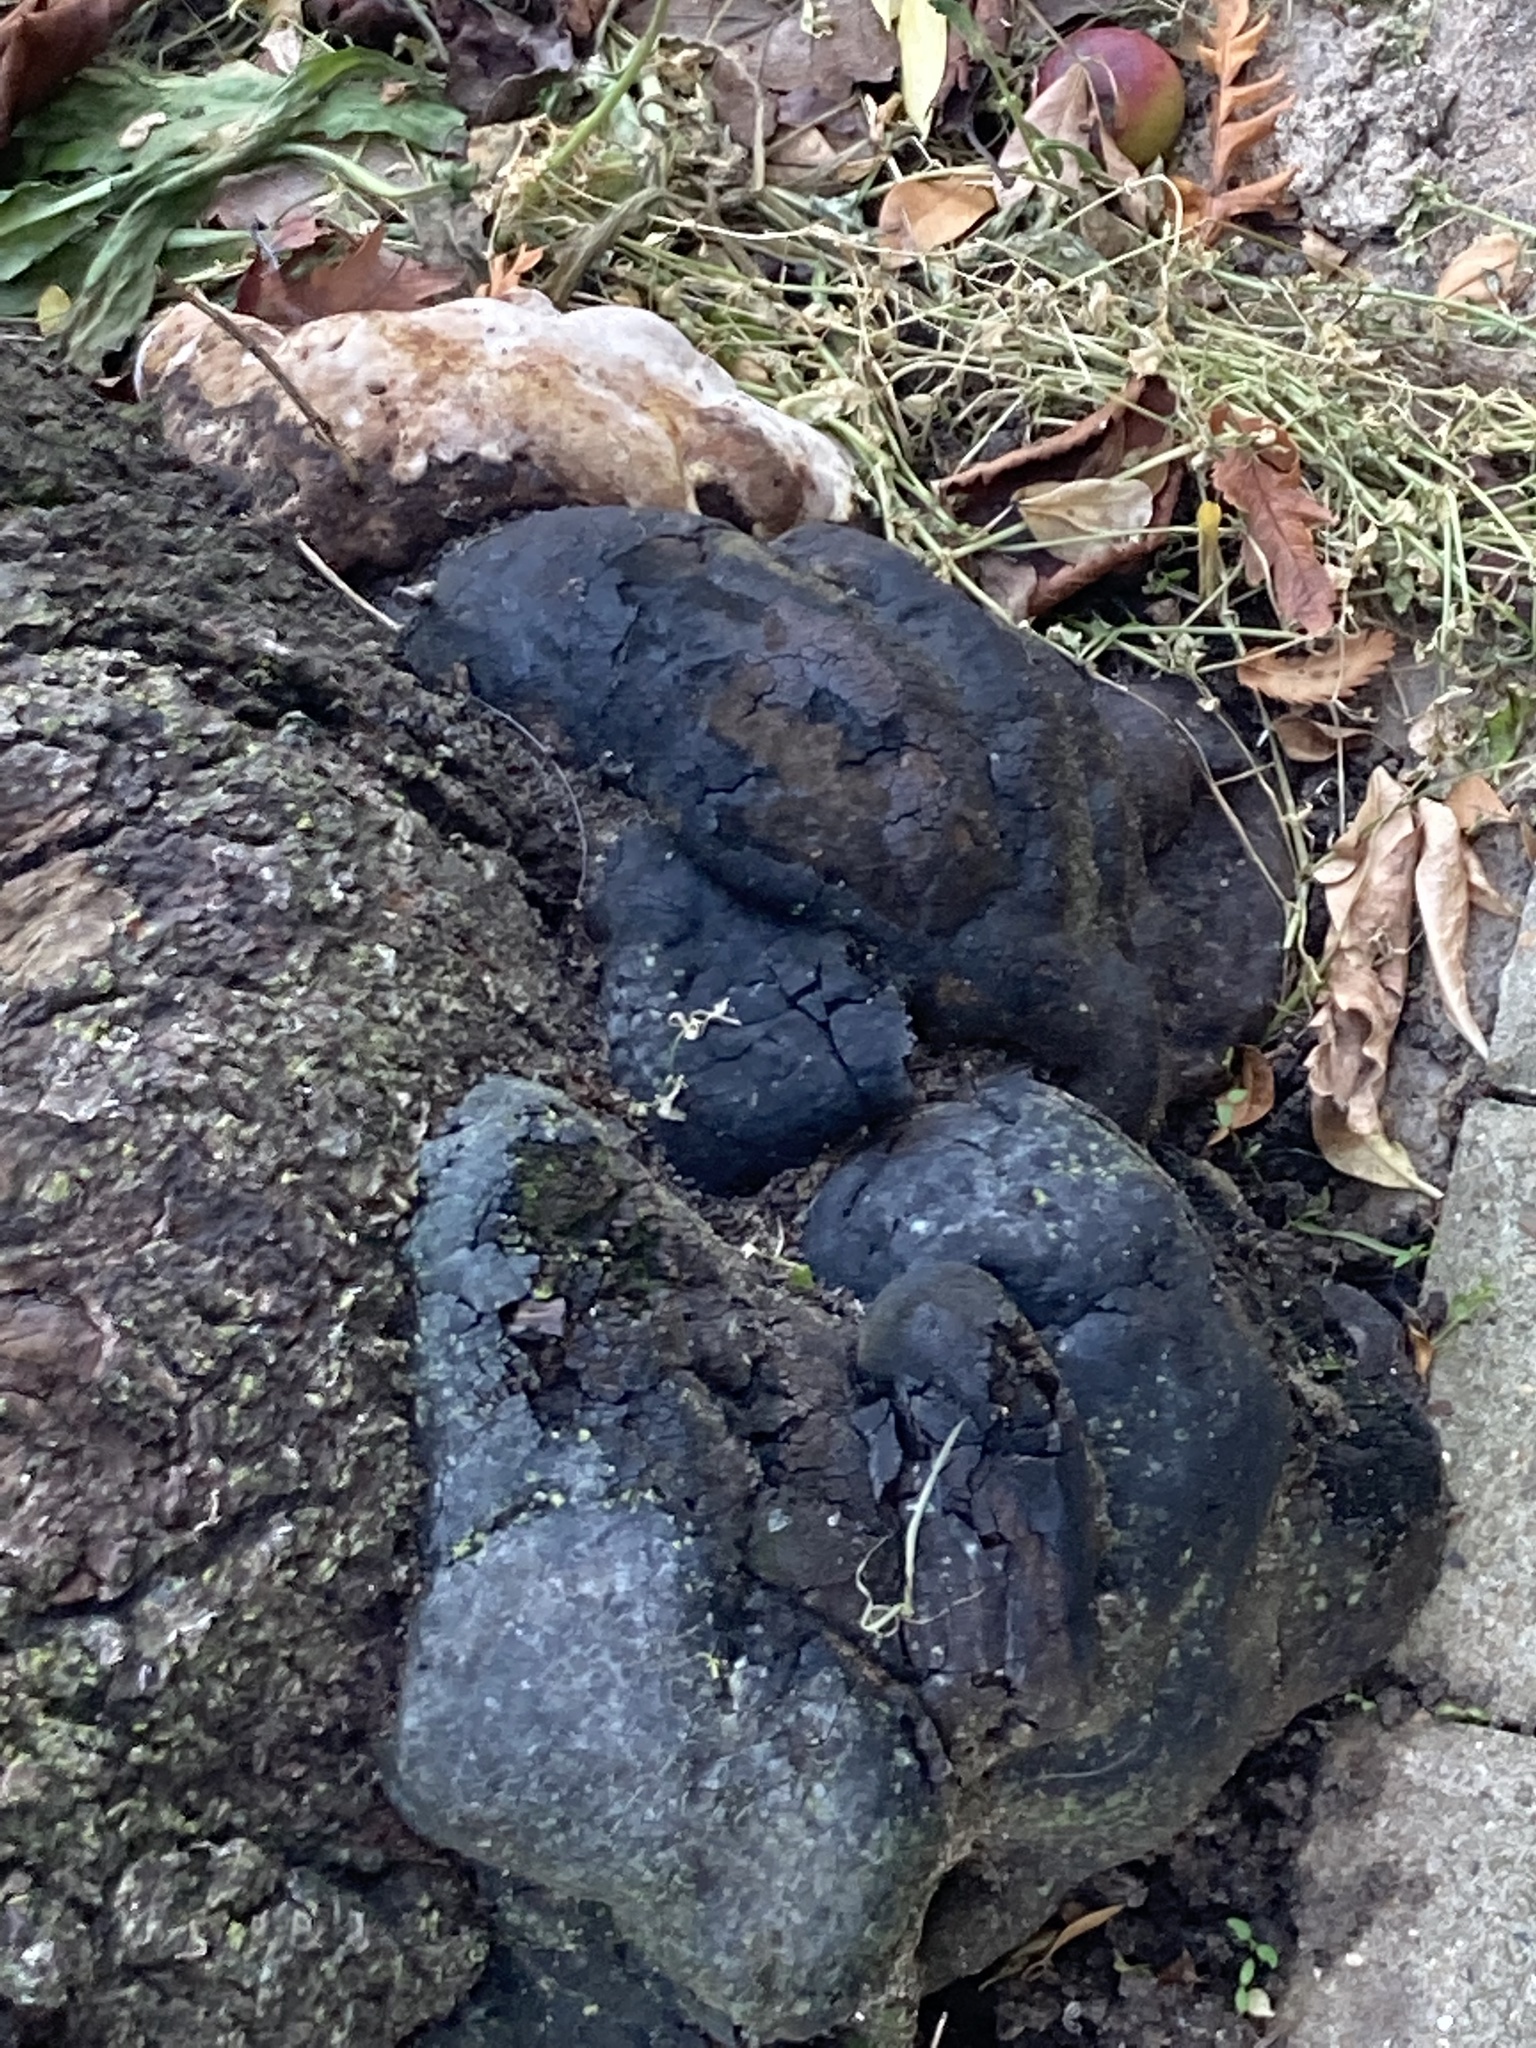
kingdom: Fungi
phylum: Basidiomycota
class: Agaricomycetes
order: Hymenochaetales
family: Hymenochaetaceae
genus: Phellinus
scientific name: Phellinus igniarius
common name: Willow bracket
